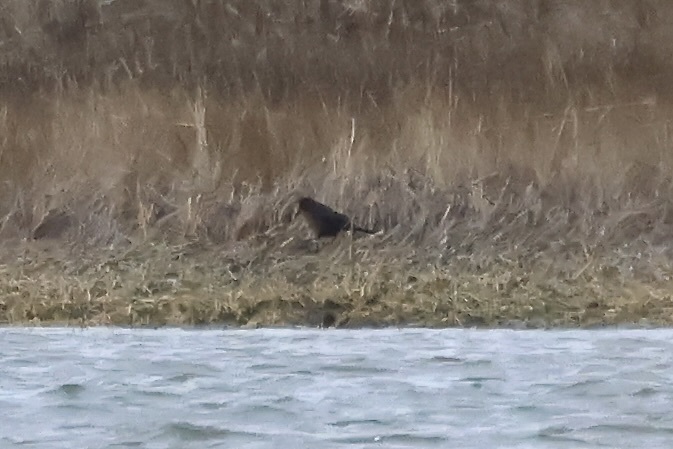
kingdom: Animalia
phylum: Chordata
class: Aves
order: Passeriformes
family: Icteridae
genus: Quiscalus
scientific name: Quiscalus major
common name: Boat-tailed grackle
